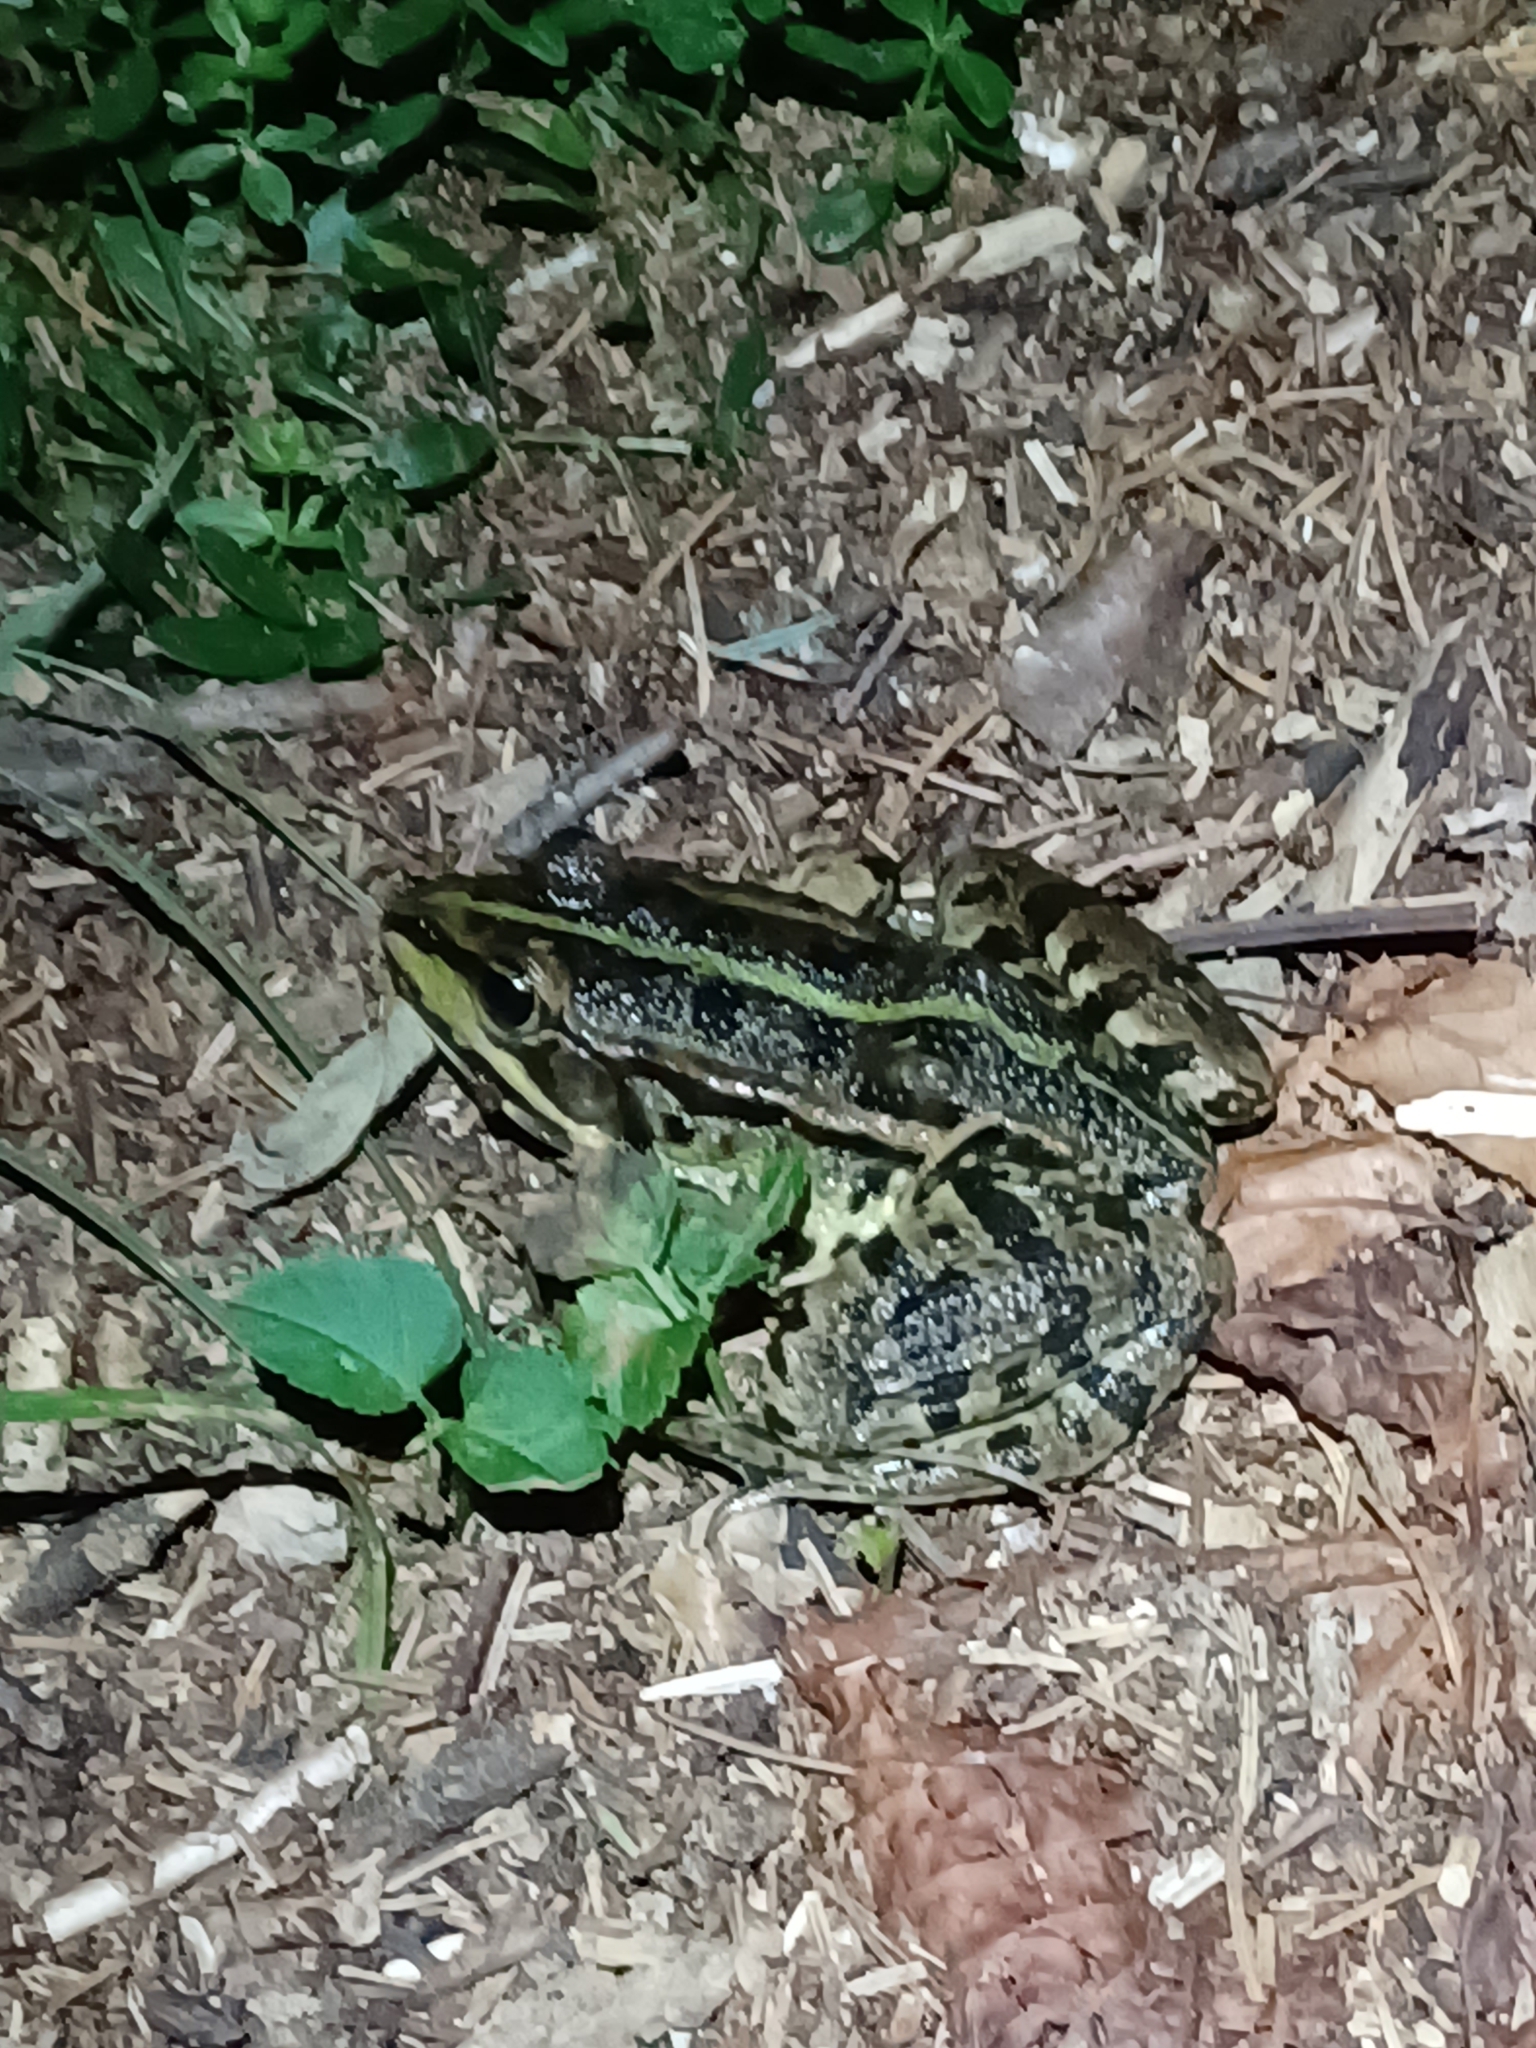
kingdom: Animalia
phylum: Chordata
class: Amphibia
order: Anura
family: Ranidae
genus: Pelophylax
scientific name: Pelophylax
